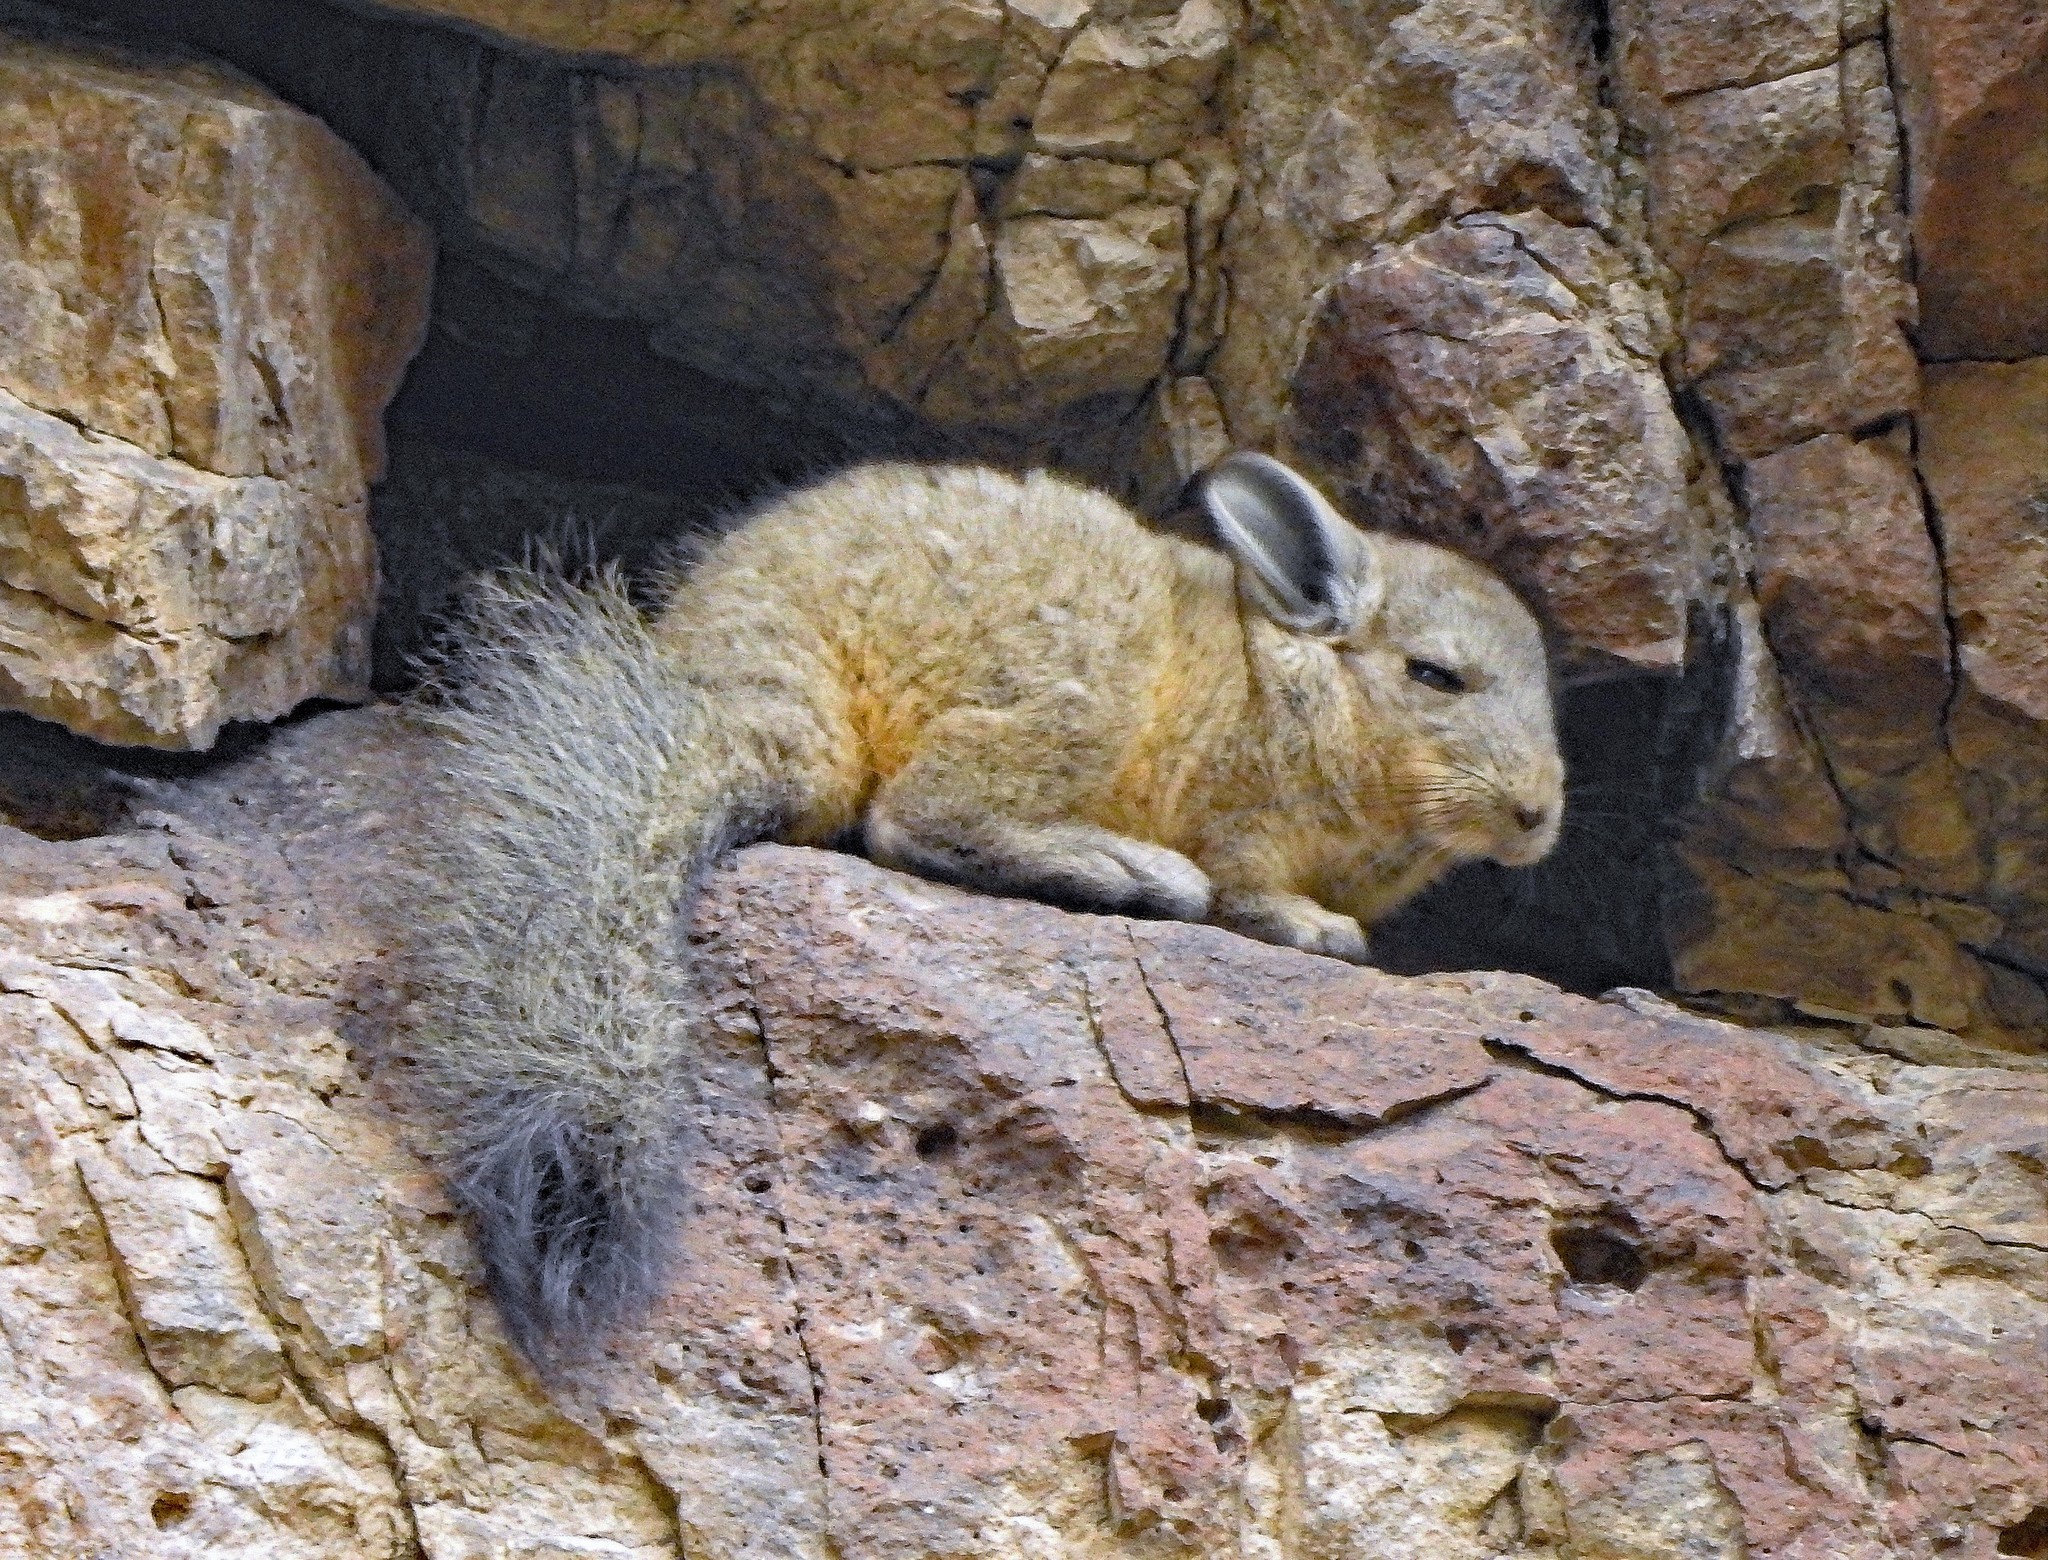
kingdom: Animalia
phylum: Chordata
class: Mammalia
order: Rodentia
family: Chinchillidae
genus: Lagidium
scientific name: Lagidium viscacia
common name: Southern viscacha
